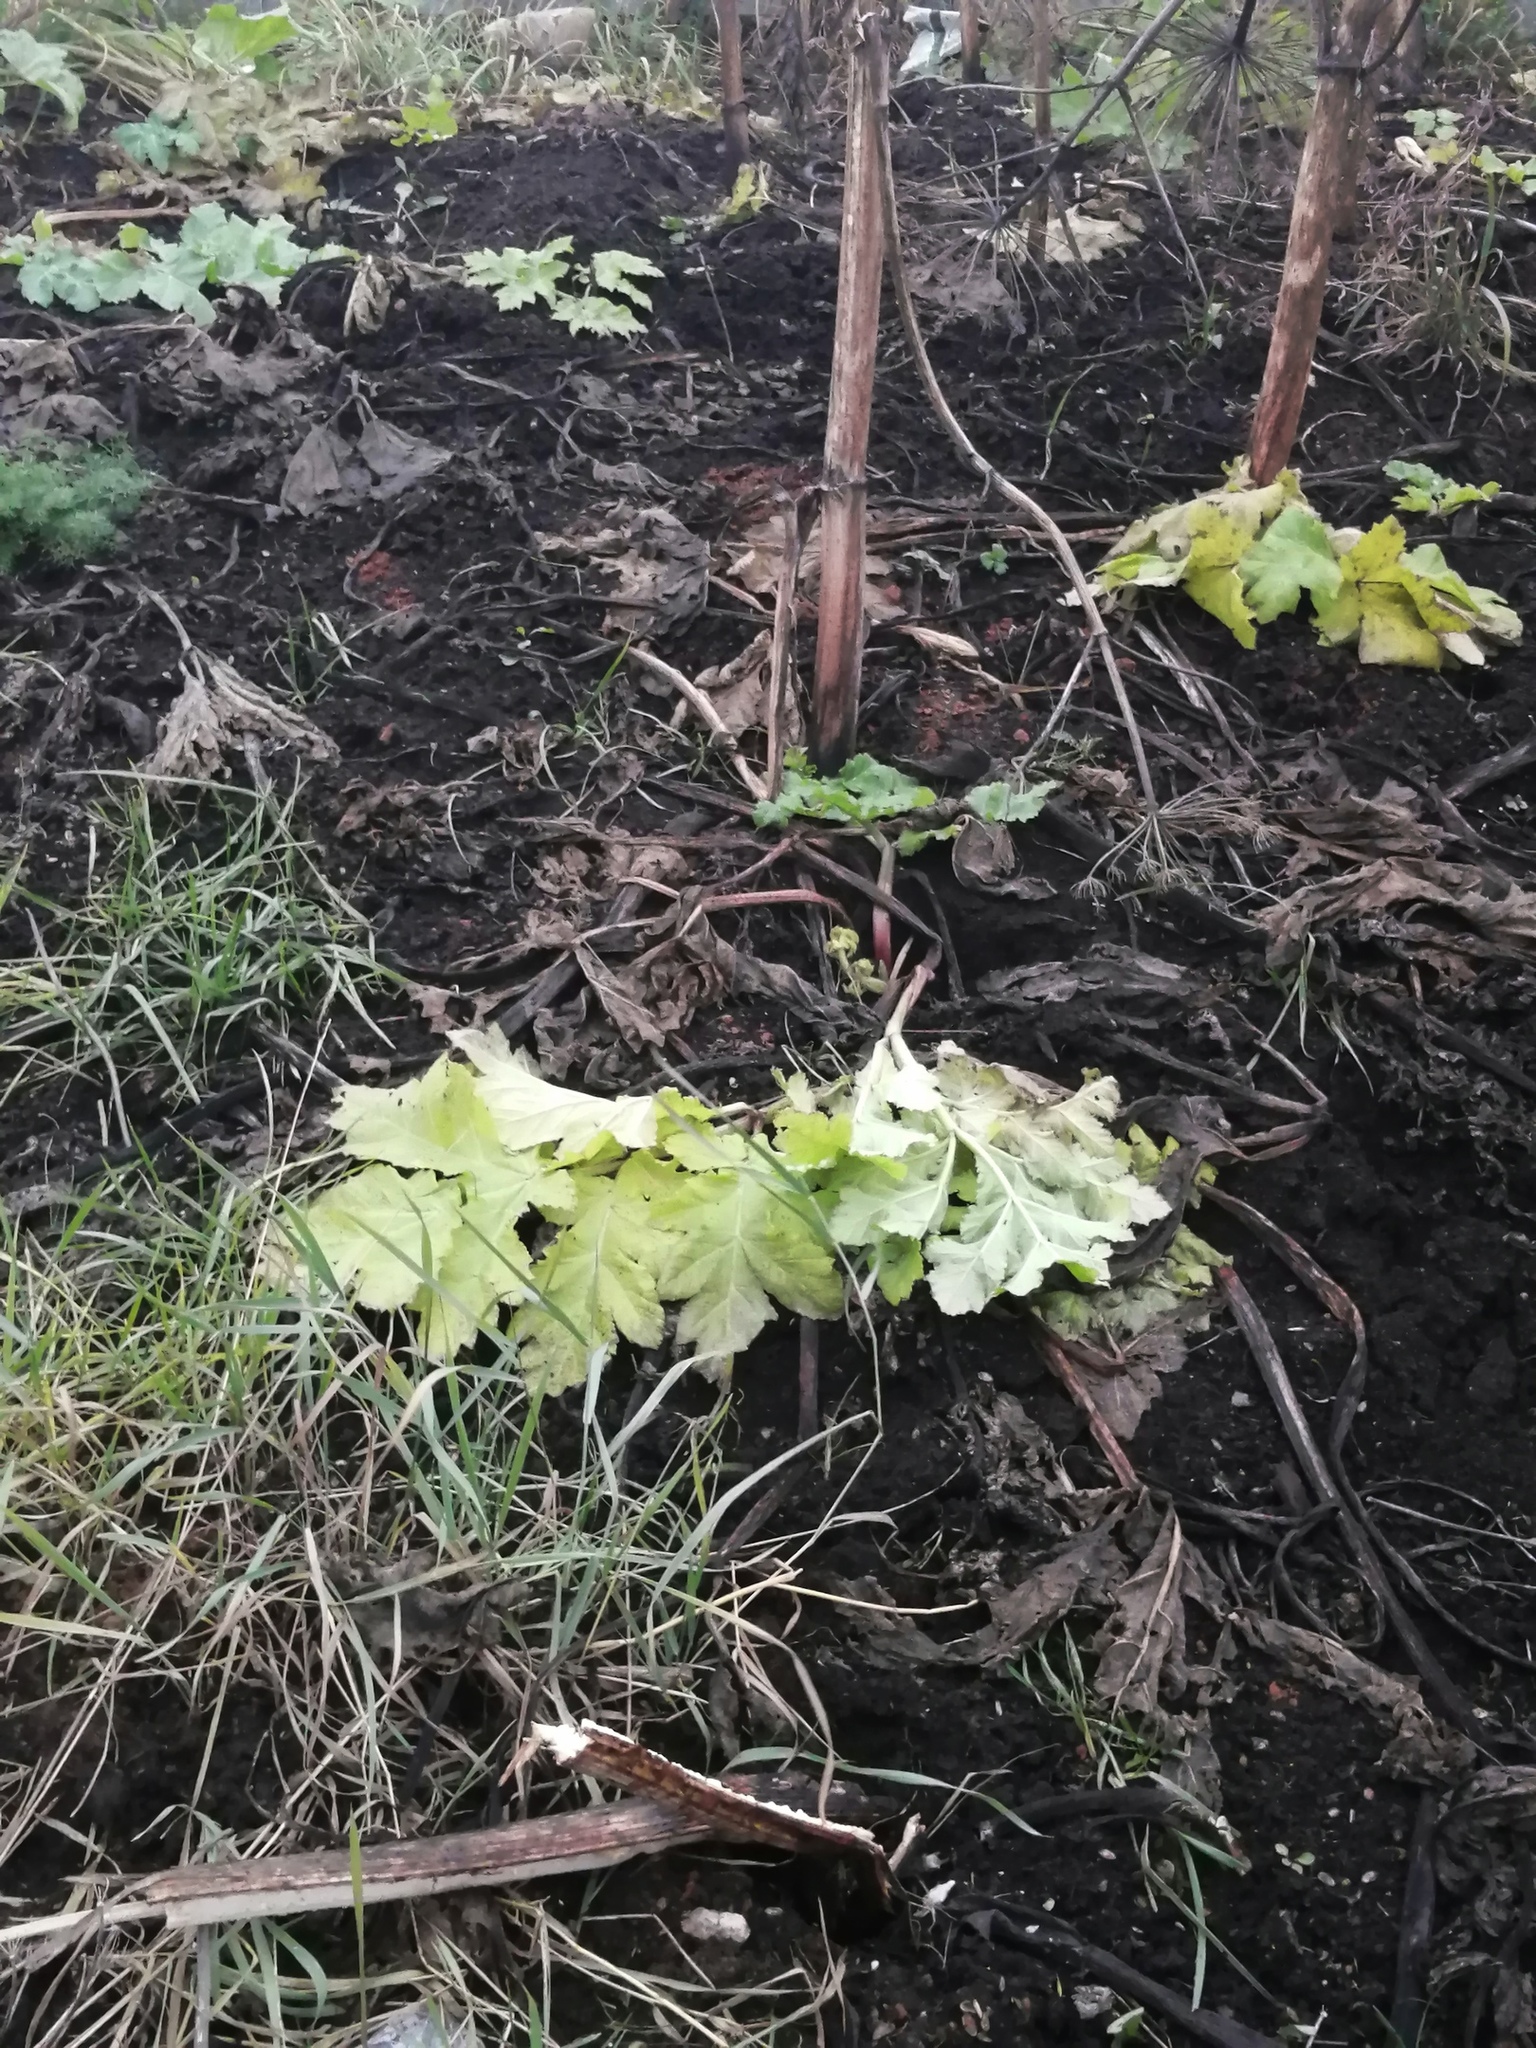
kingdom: Plantae
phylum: Tracheophyta
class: Magnoliopsida
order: Apiales
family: Apiaceae
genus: Heracleum
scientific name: Heracleum sosnowskyi
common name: Sosnowsky's hogweed
